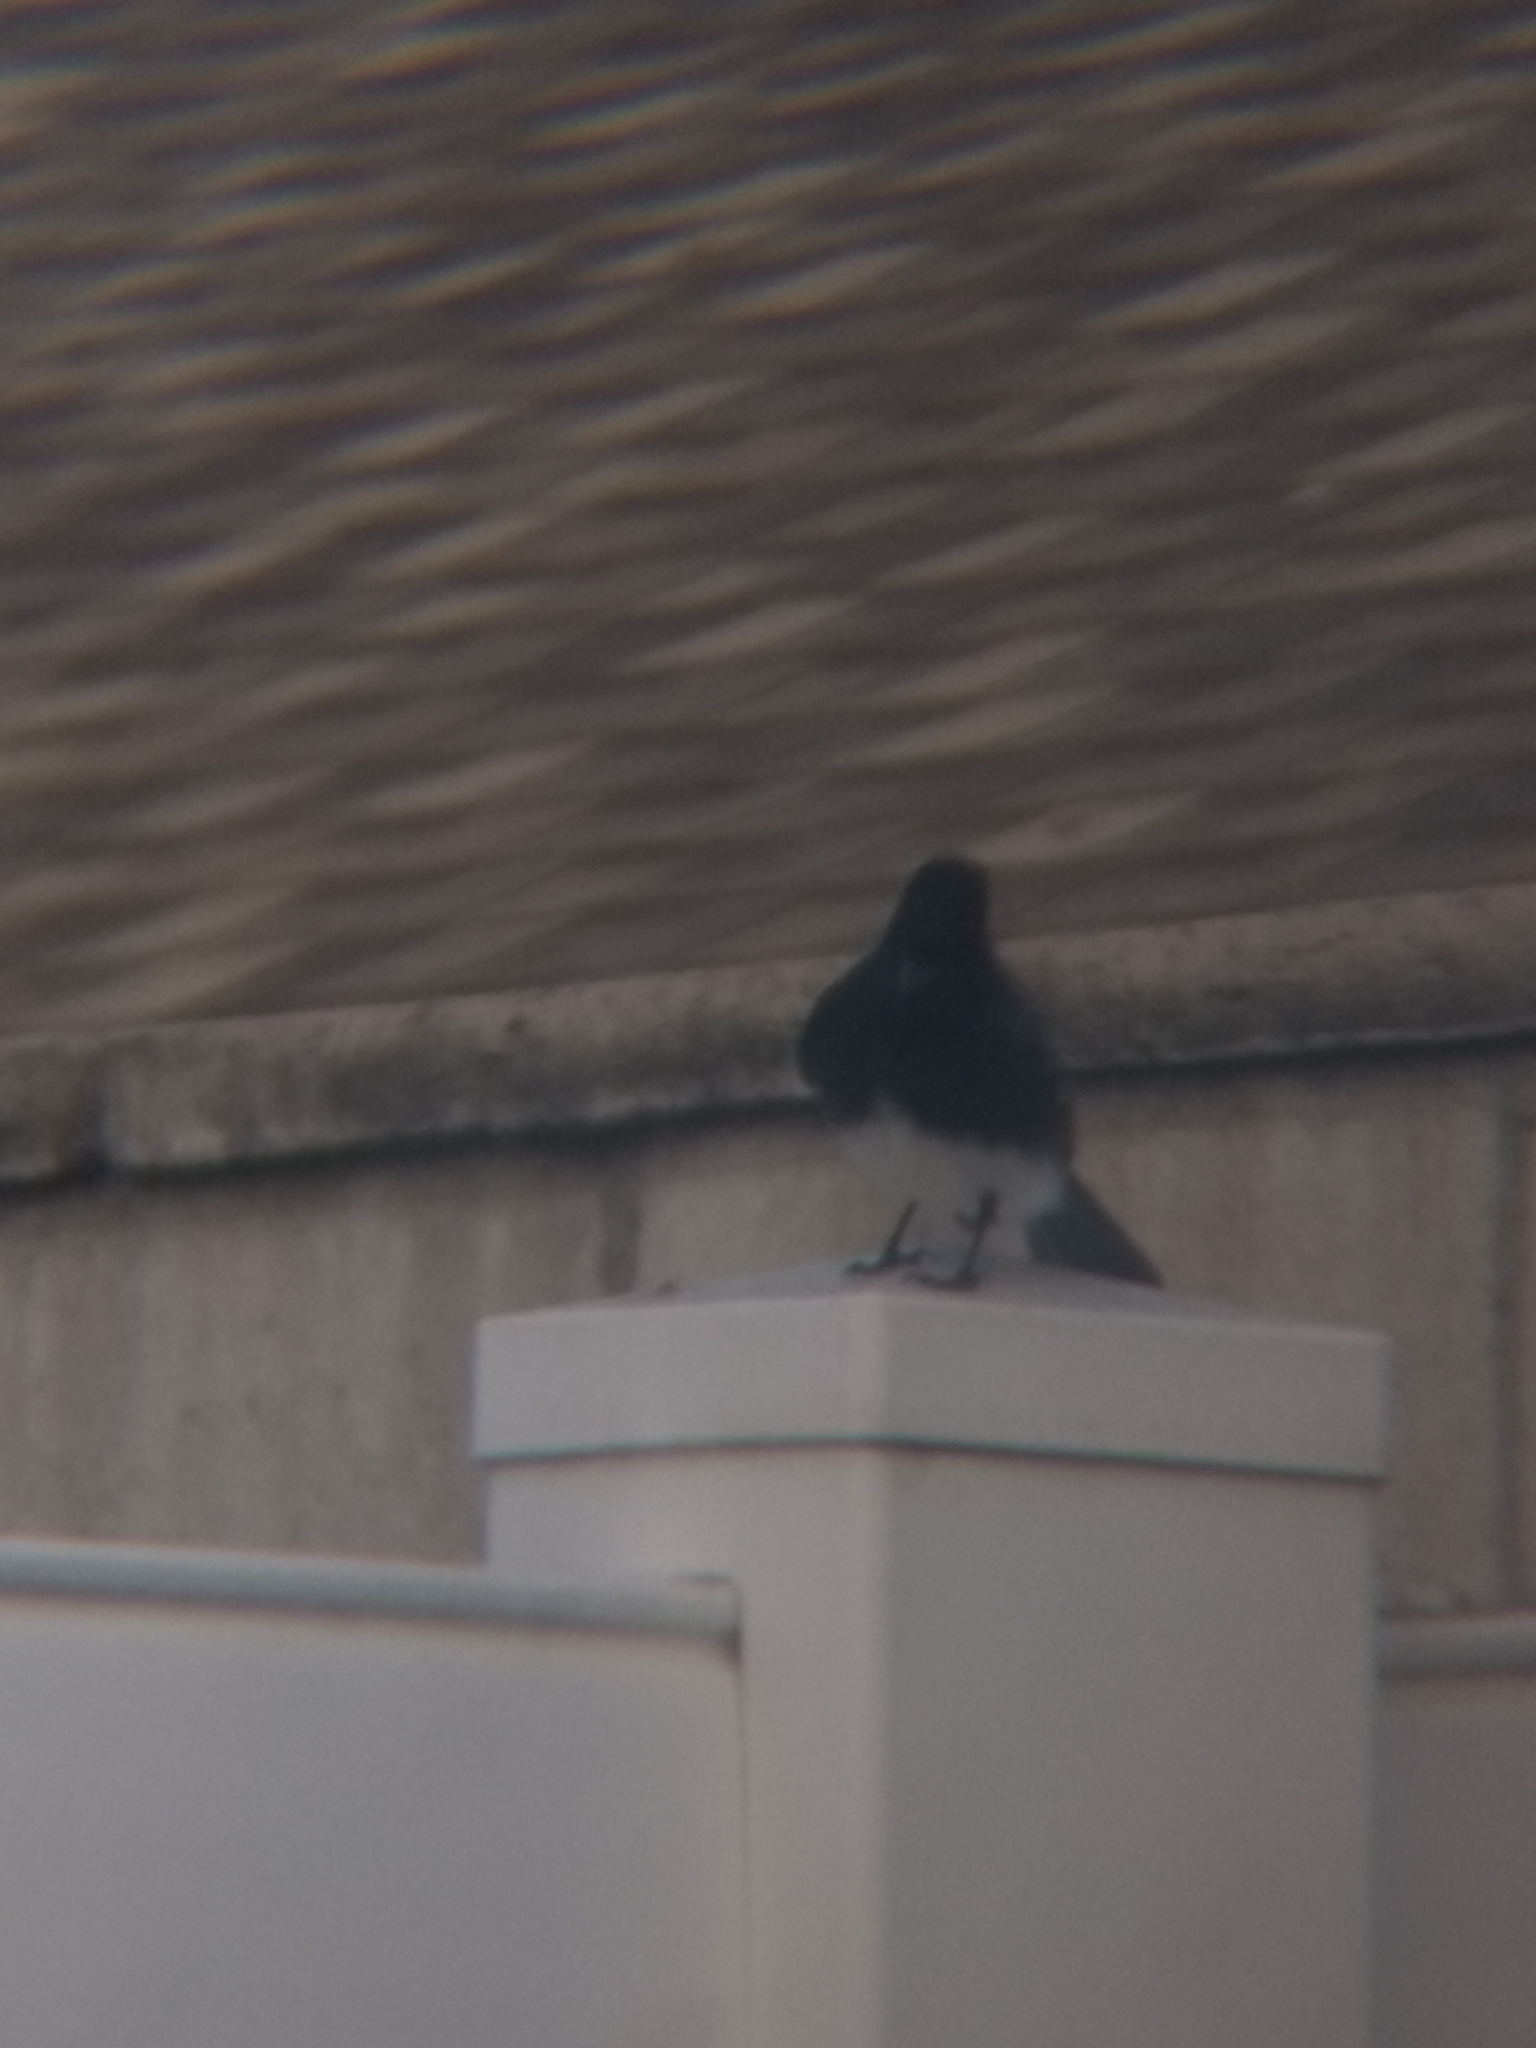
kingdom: Animalia
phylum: Chordata
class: Aves
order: Passeriformes
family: Tyrannidae
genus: Sayornis
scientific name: Sayornis nigricans
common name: Black phoebe
